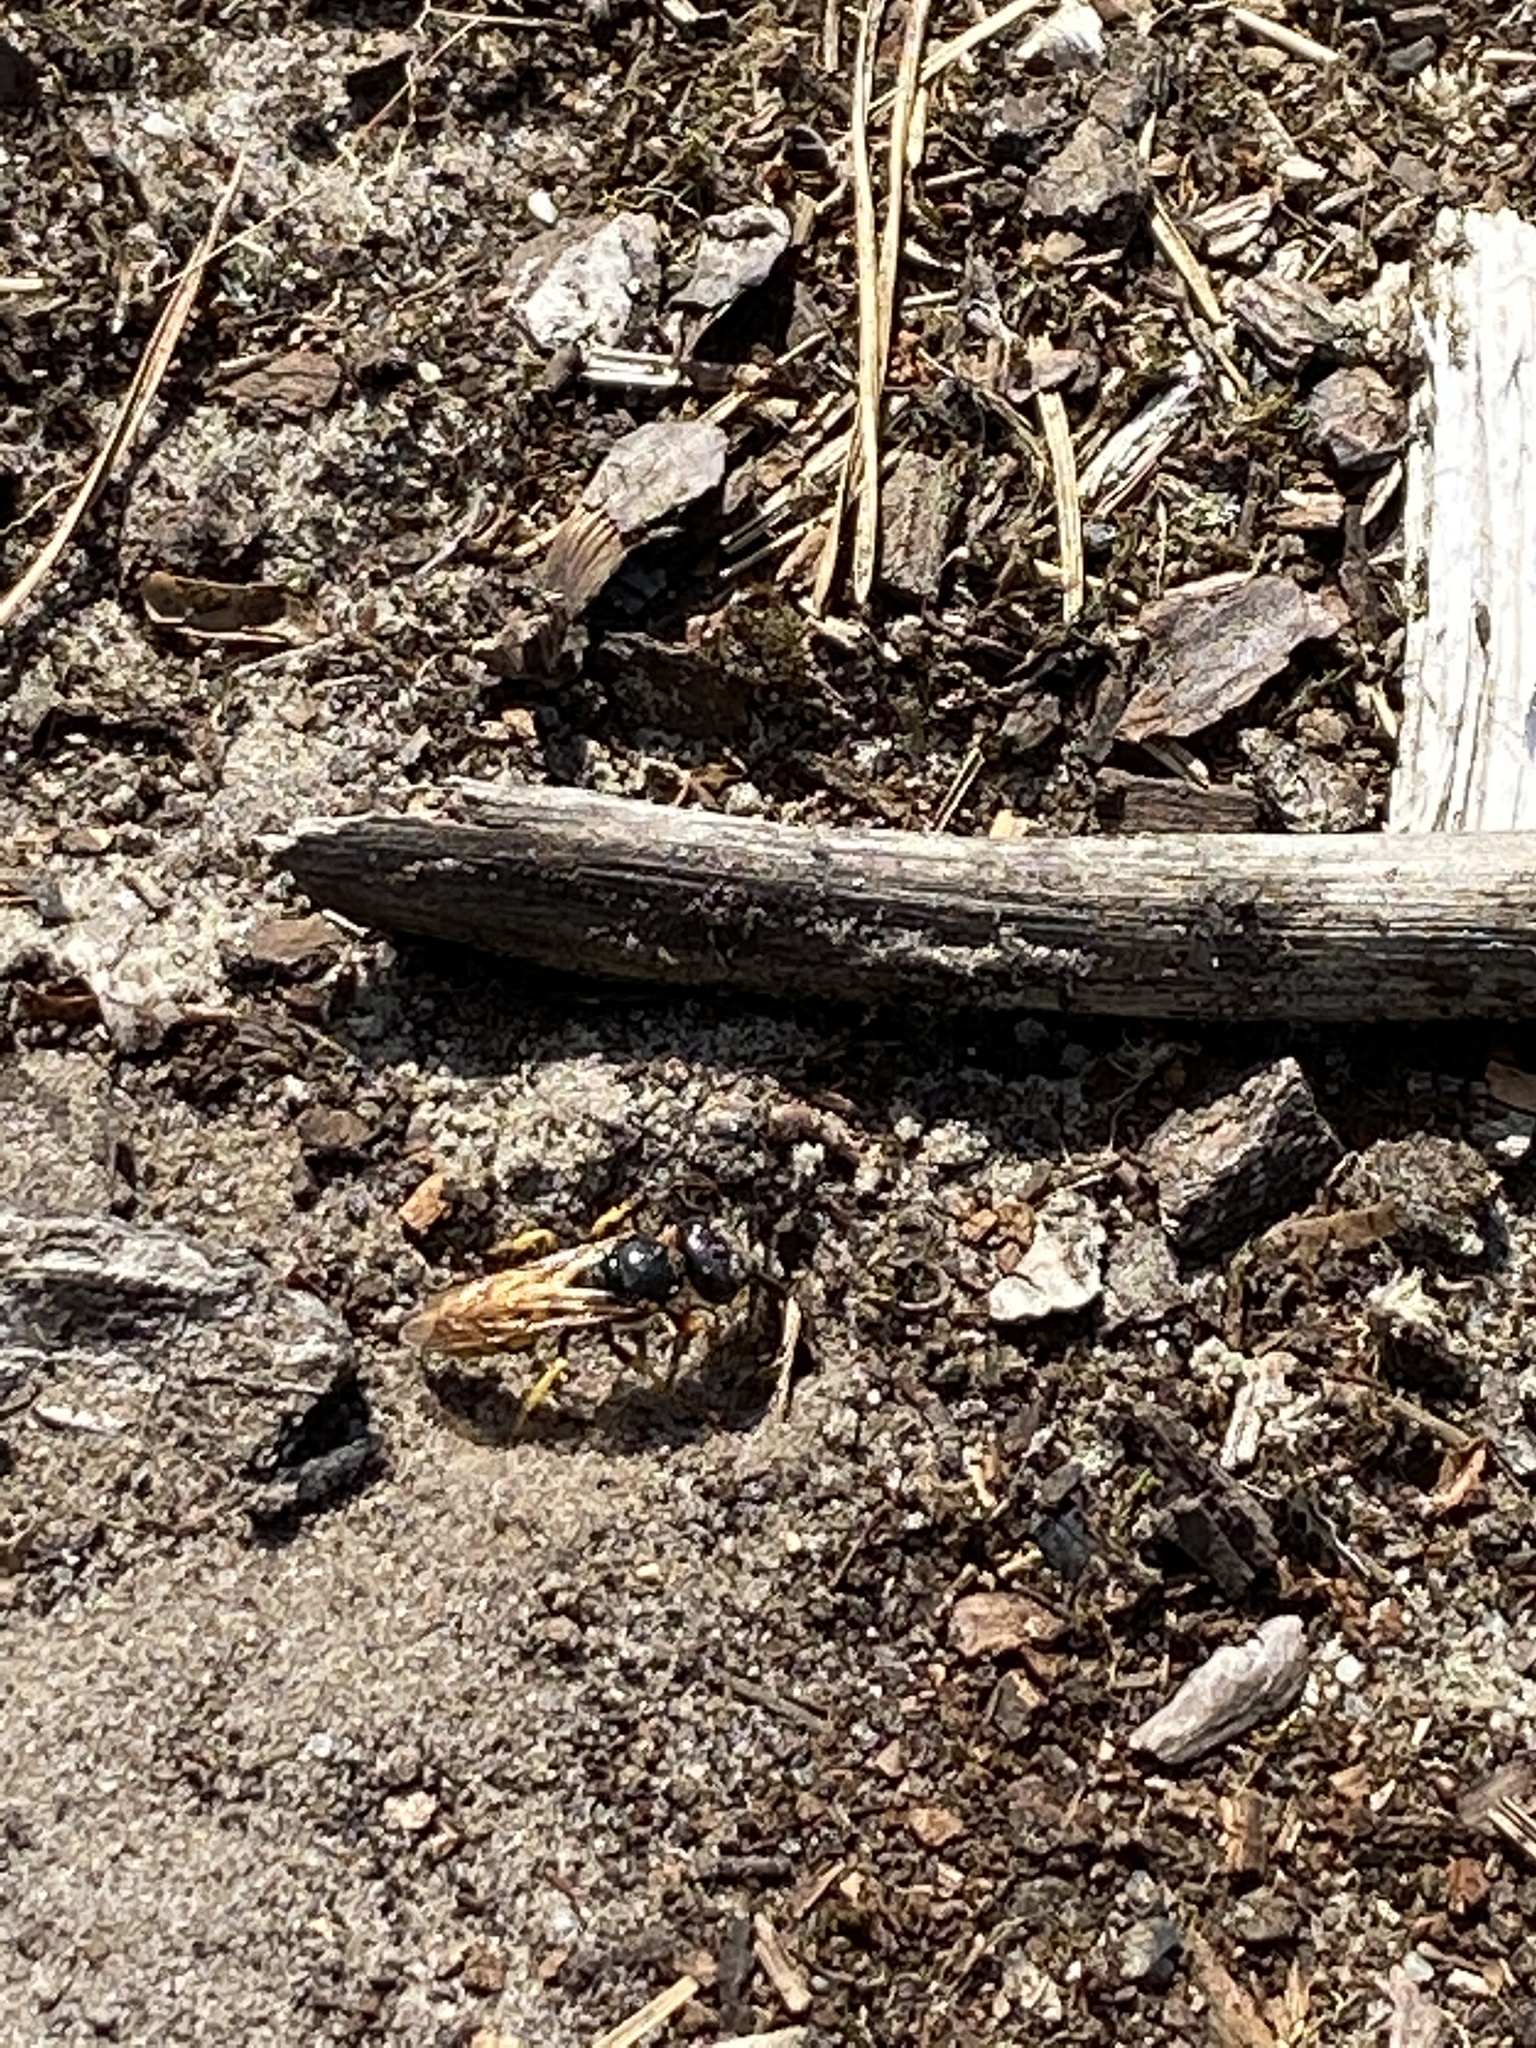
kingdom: Animalia
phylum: Arthropoda
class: Insecta
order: Hymenoptera
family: Crabronidae
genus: Philanthus
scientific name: Philanthus triangulum
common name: Bee wolf
